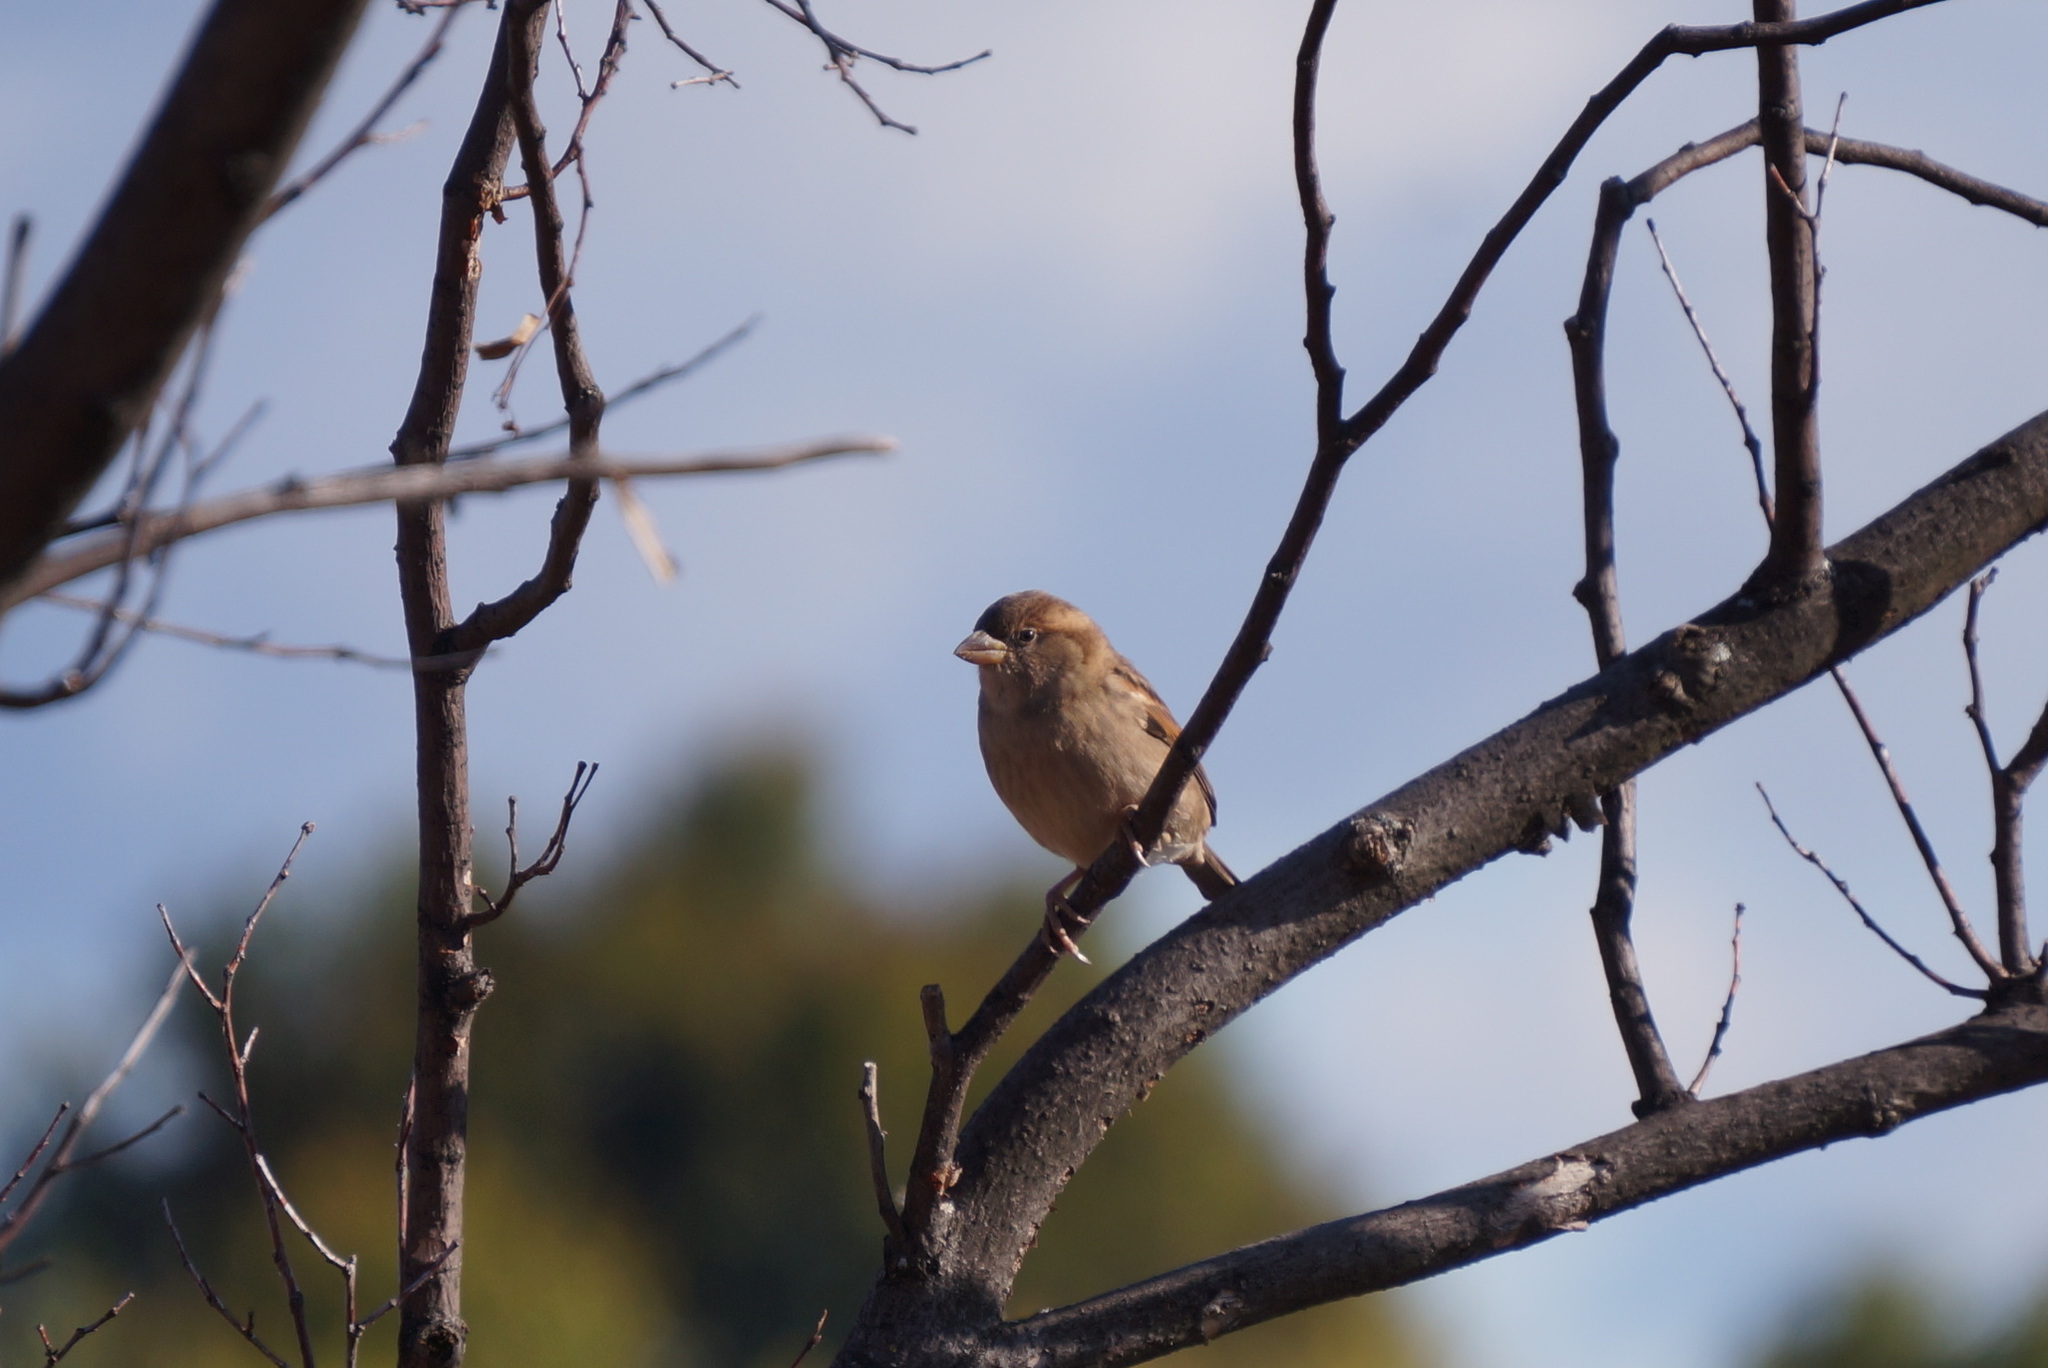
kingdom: Animalia
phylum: Chordata
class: Aves
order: Passeriformes
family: Passeridae
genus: Passer
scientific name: Passer domesticus
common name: House sparrow
